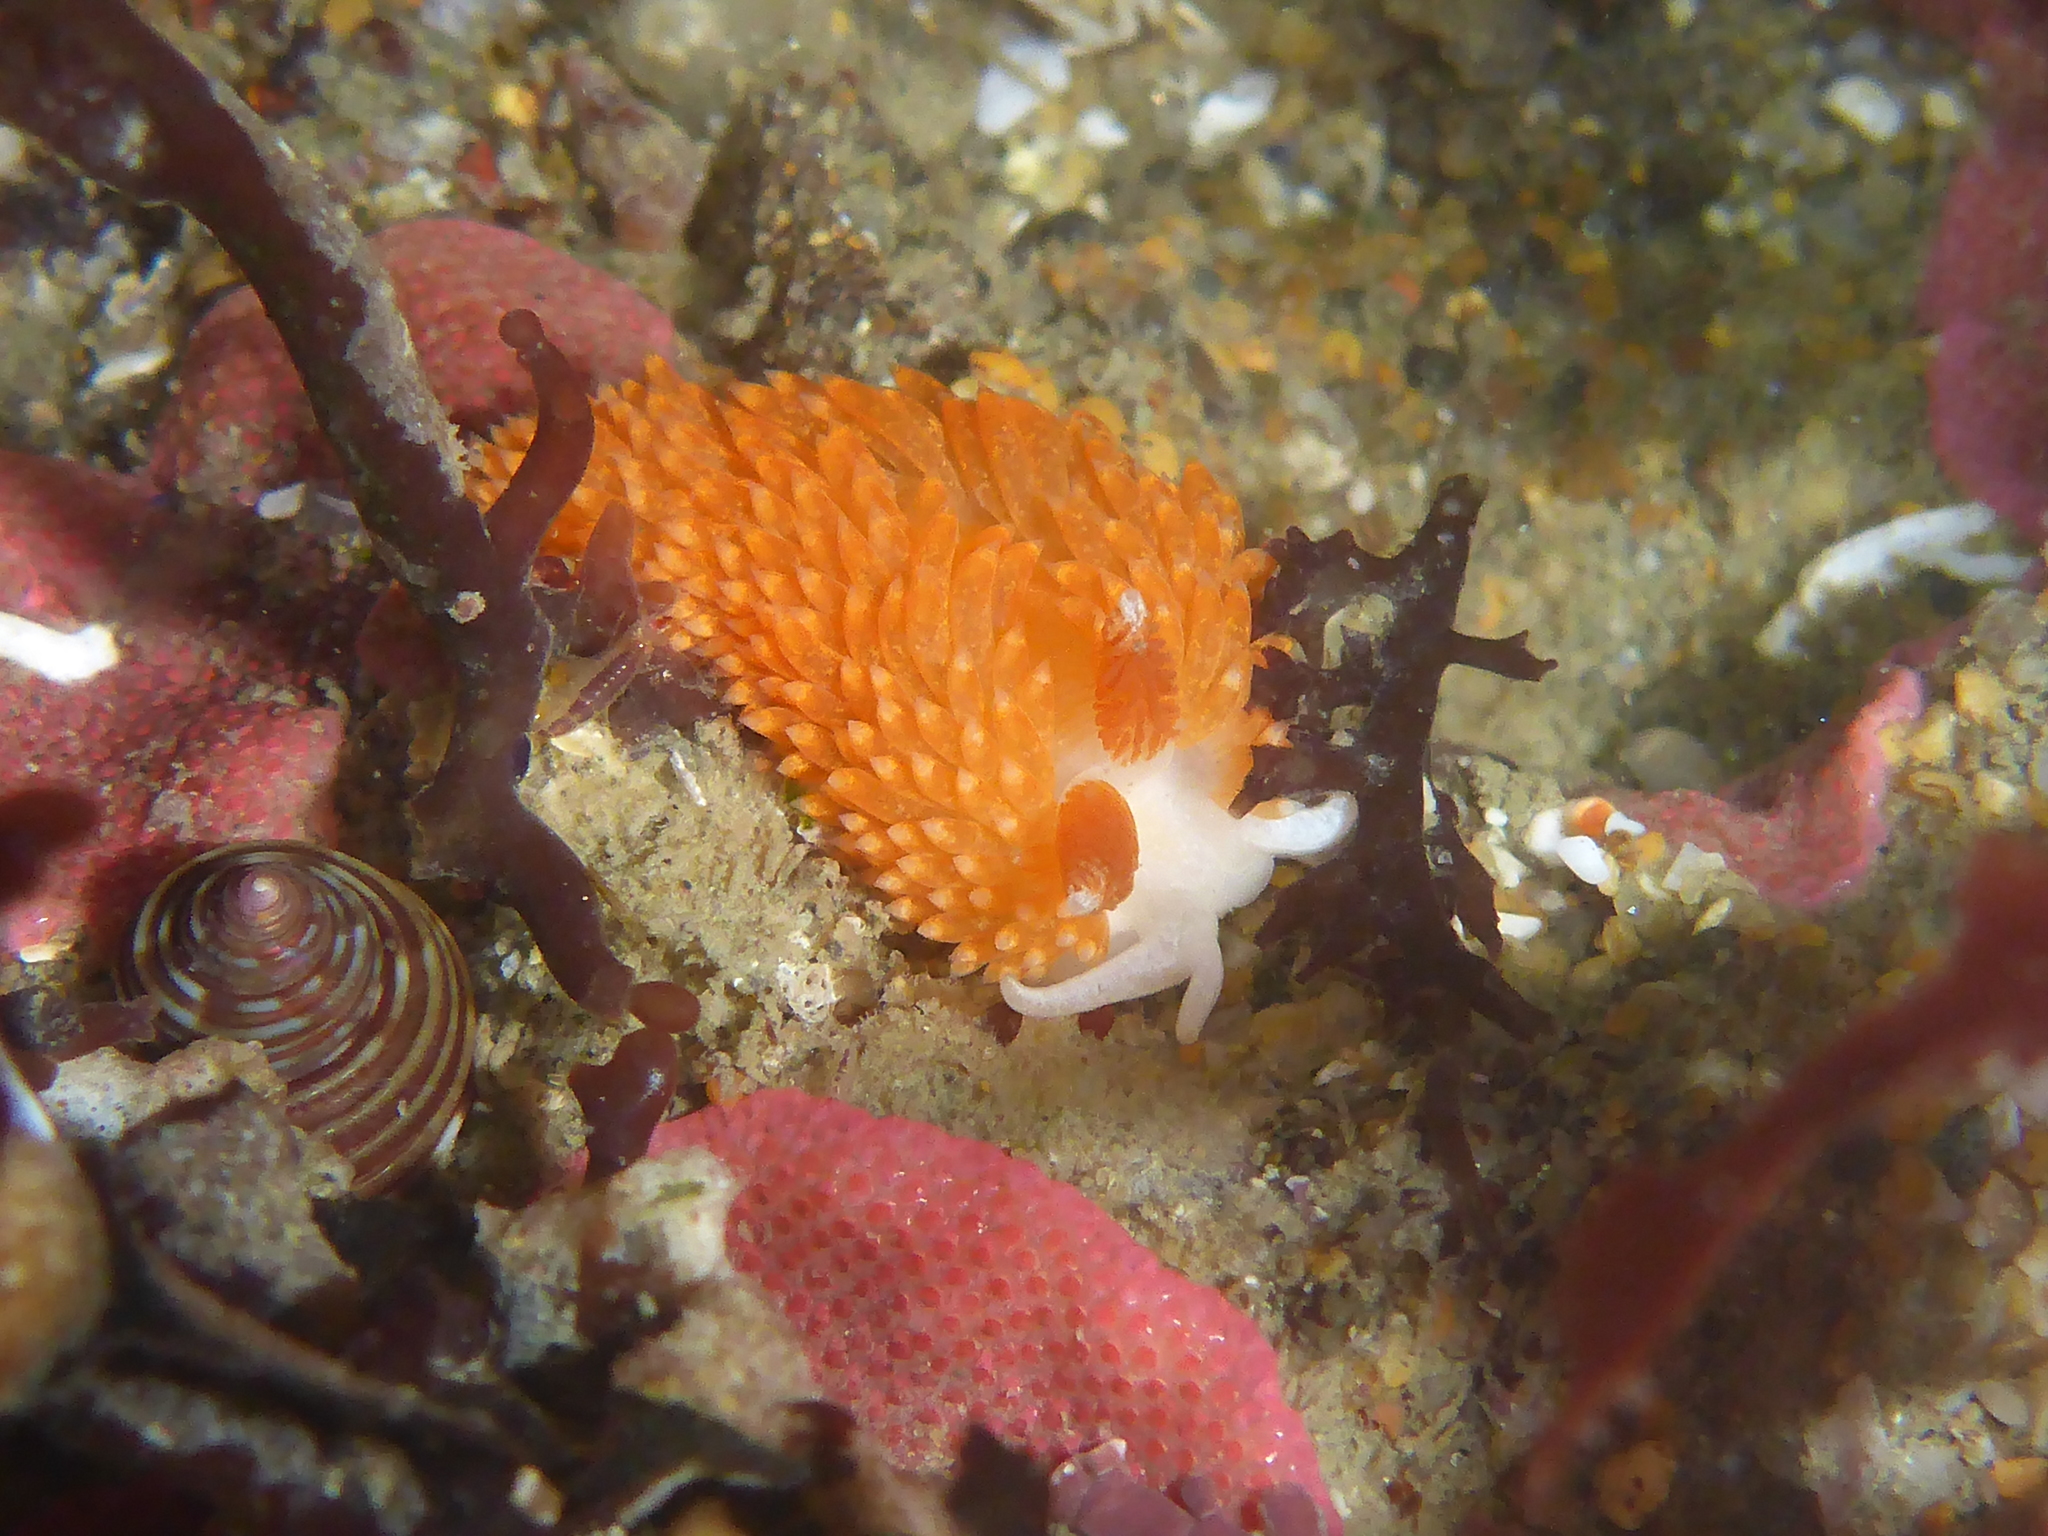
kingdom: Animalia
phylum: Mollusca
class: Gastropoda
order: Nudibranchia
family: Aeolidiidae
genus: Anteaeolidiella
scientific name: Anteaeolidiella oliviae
